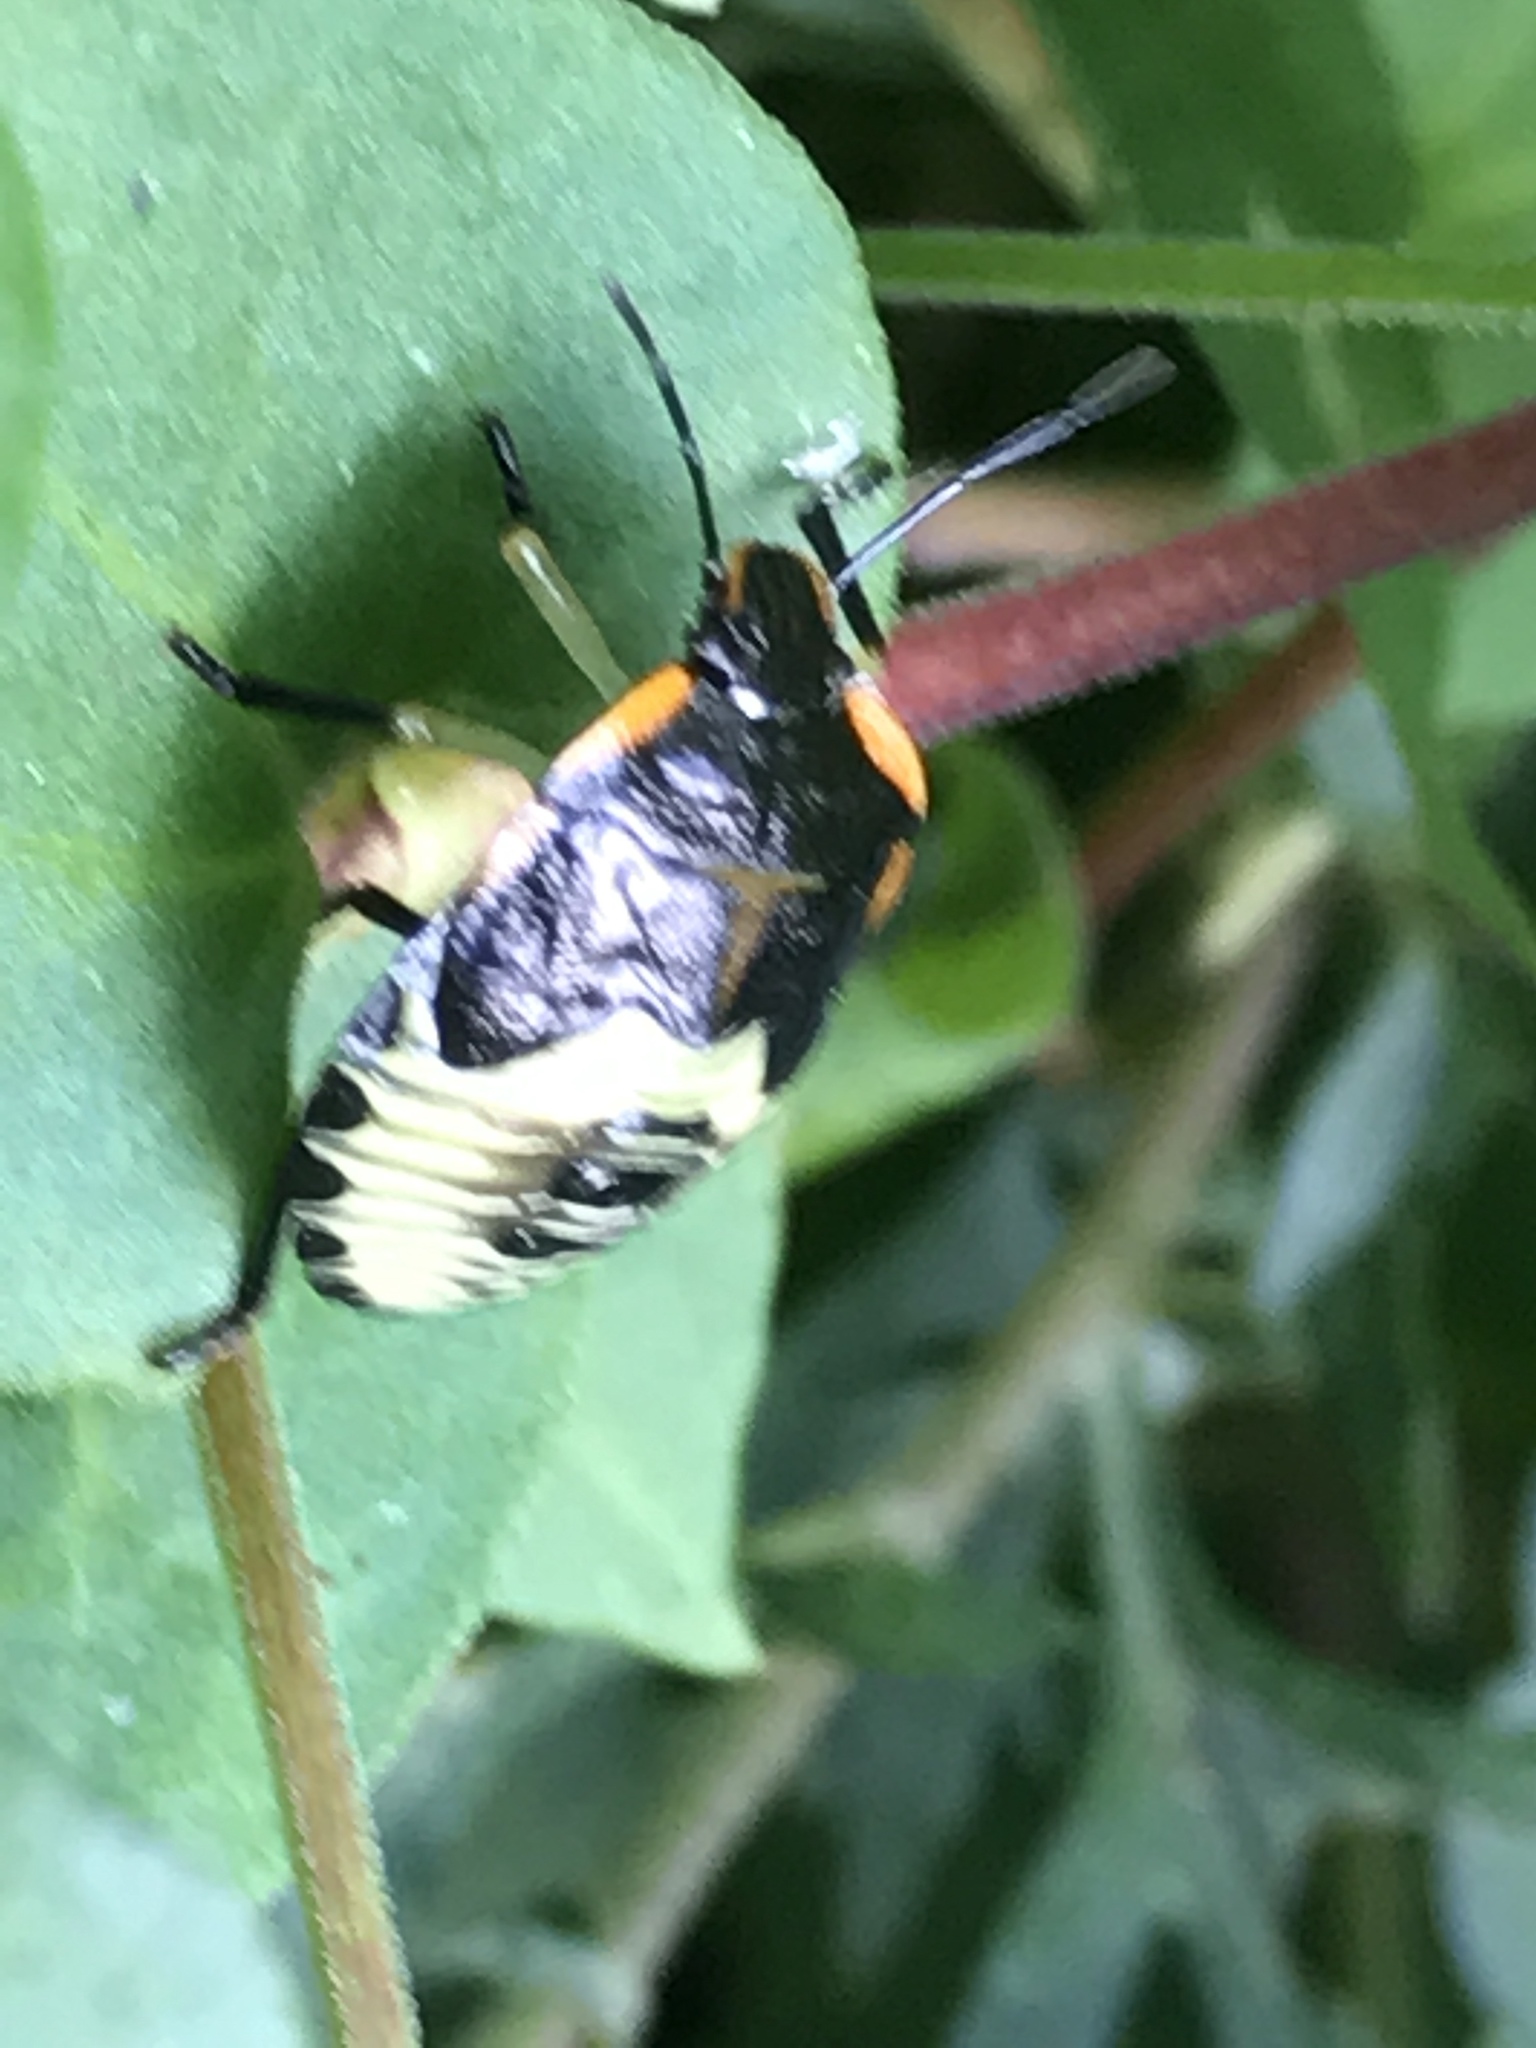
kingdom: Animalia
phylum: Arthropoda
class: Insecta
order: Hemiptera
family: Pentatomidae
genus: Chinavia
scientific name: Chinavia hilaris
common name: Green stink bug
